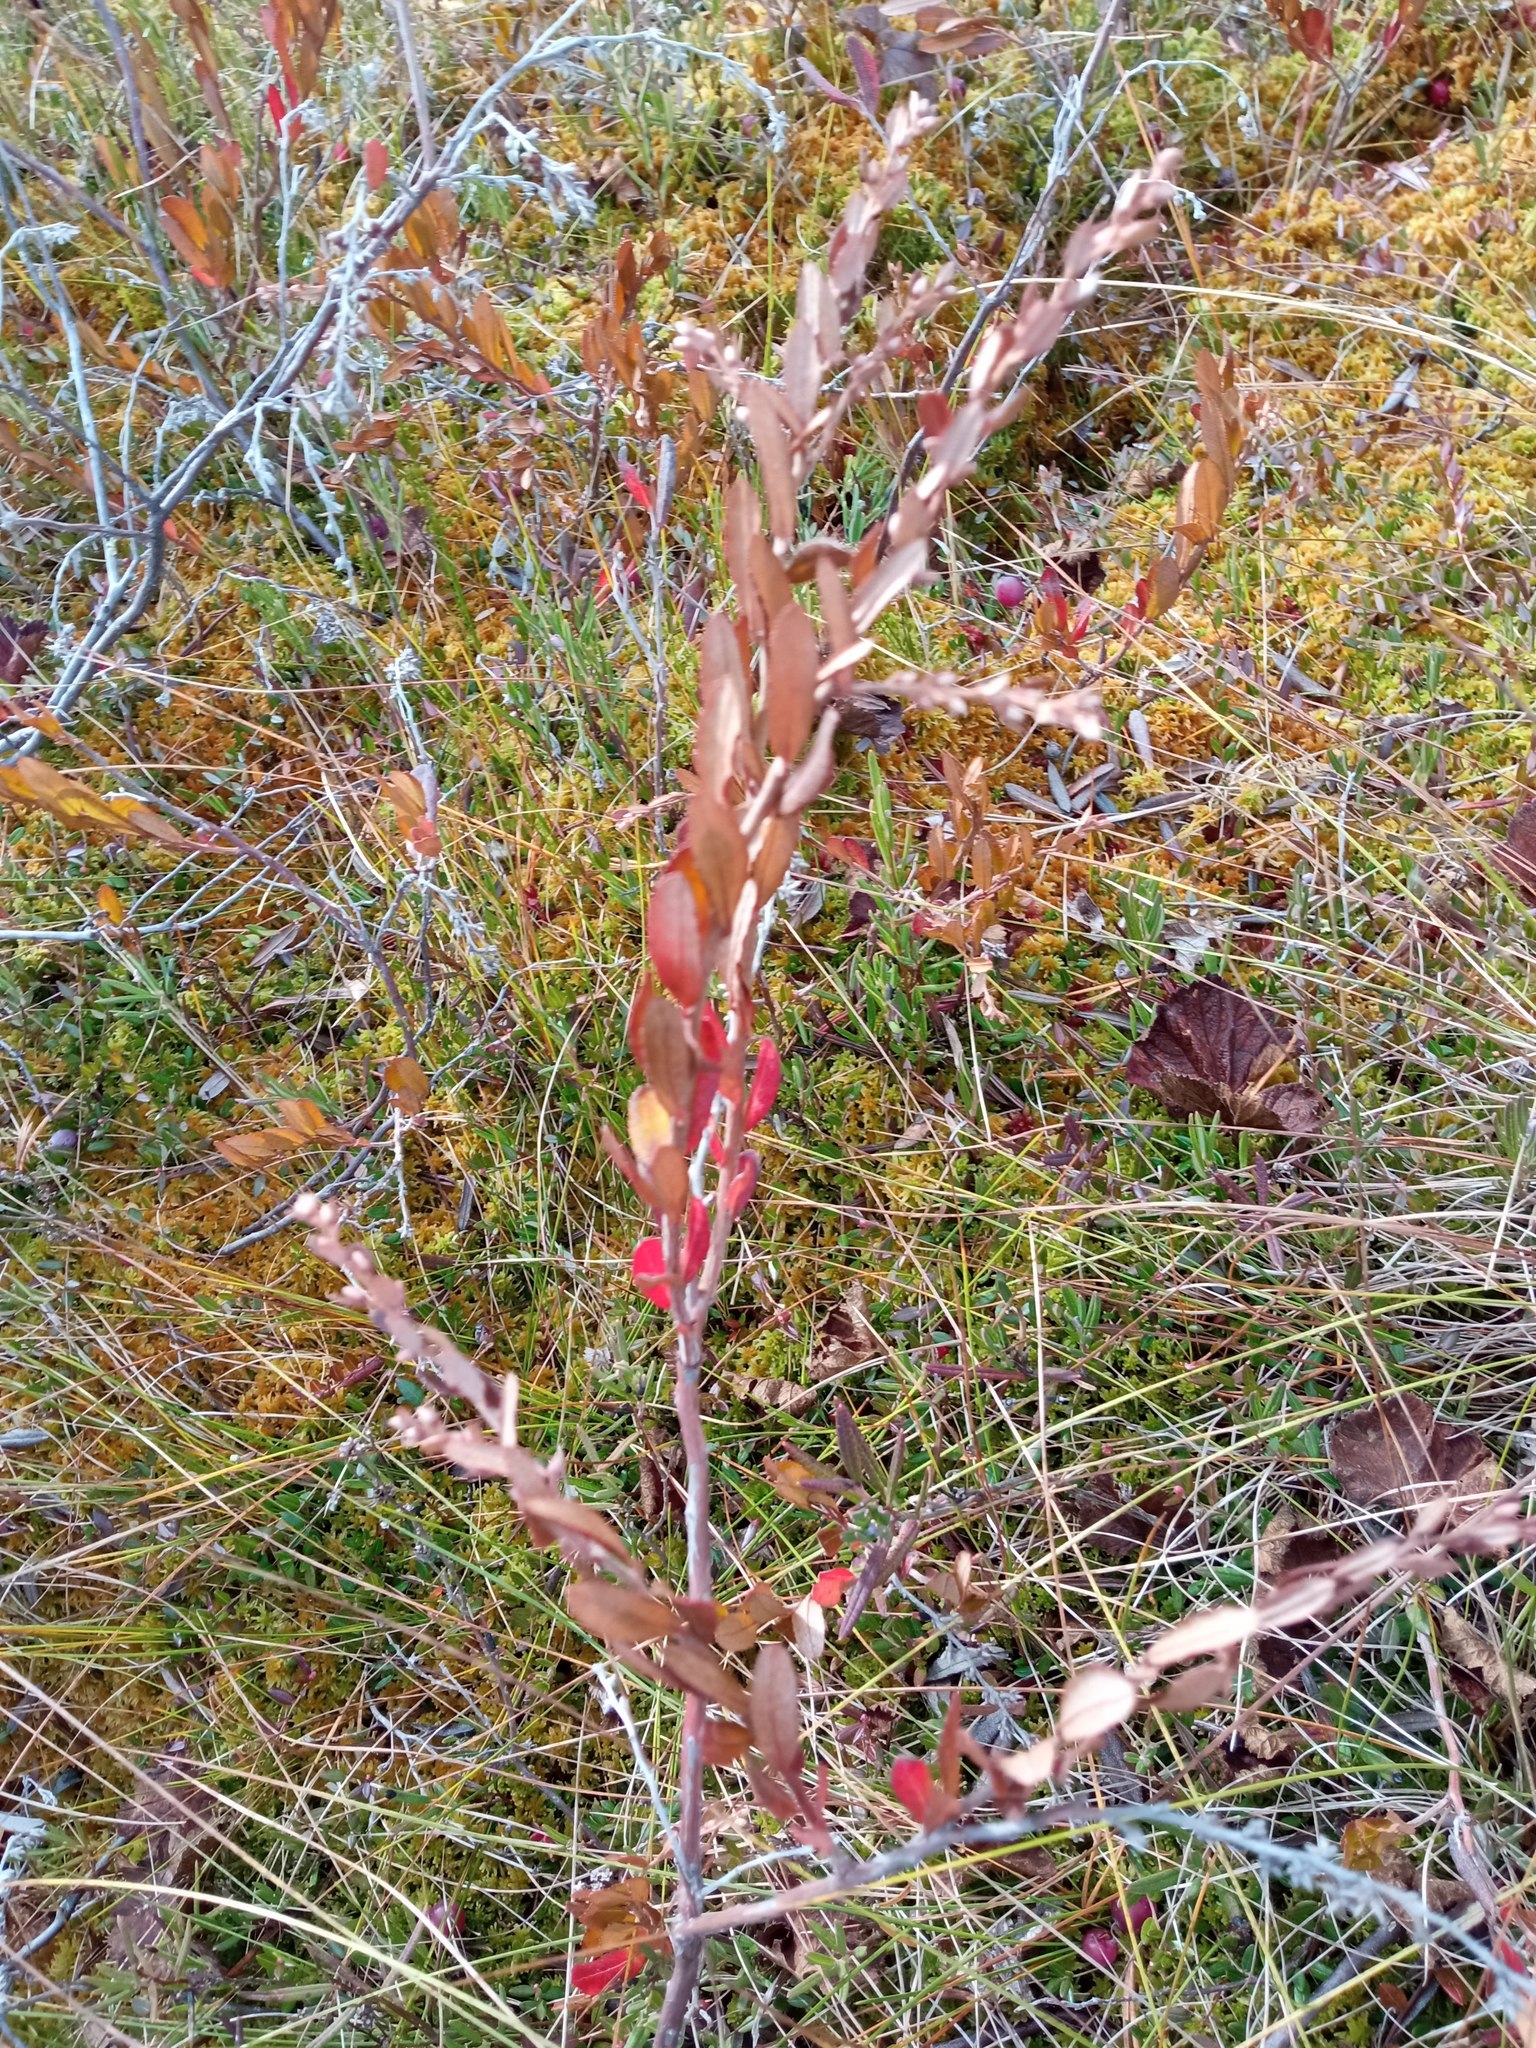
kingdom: Plantae
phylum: Tracheophyta
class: Magnoliopsida
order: Ericales
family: Ericaceae
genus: Chamaedaphne
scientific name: Chamaedaphne calyculata
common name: Leatherleaf
